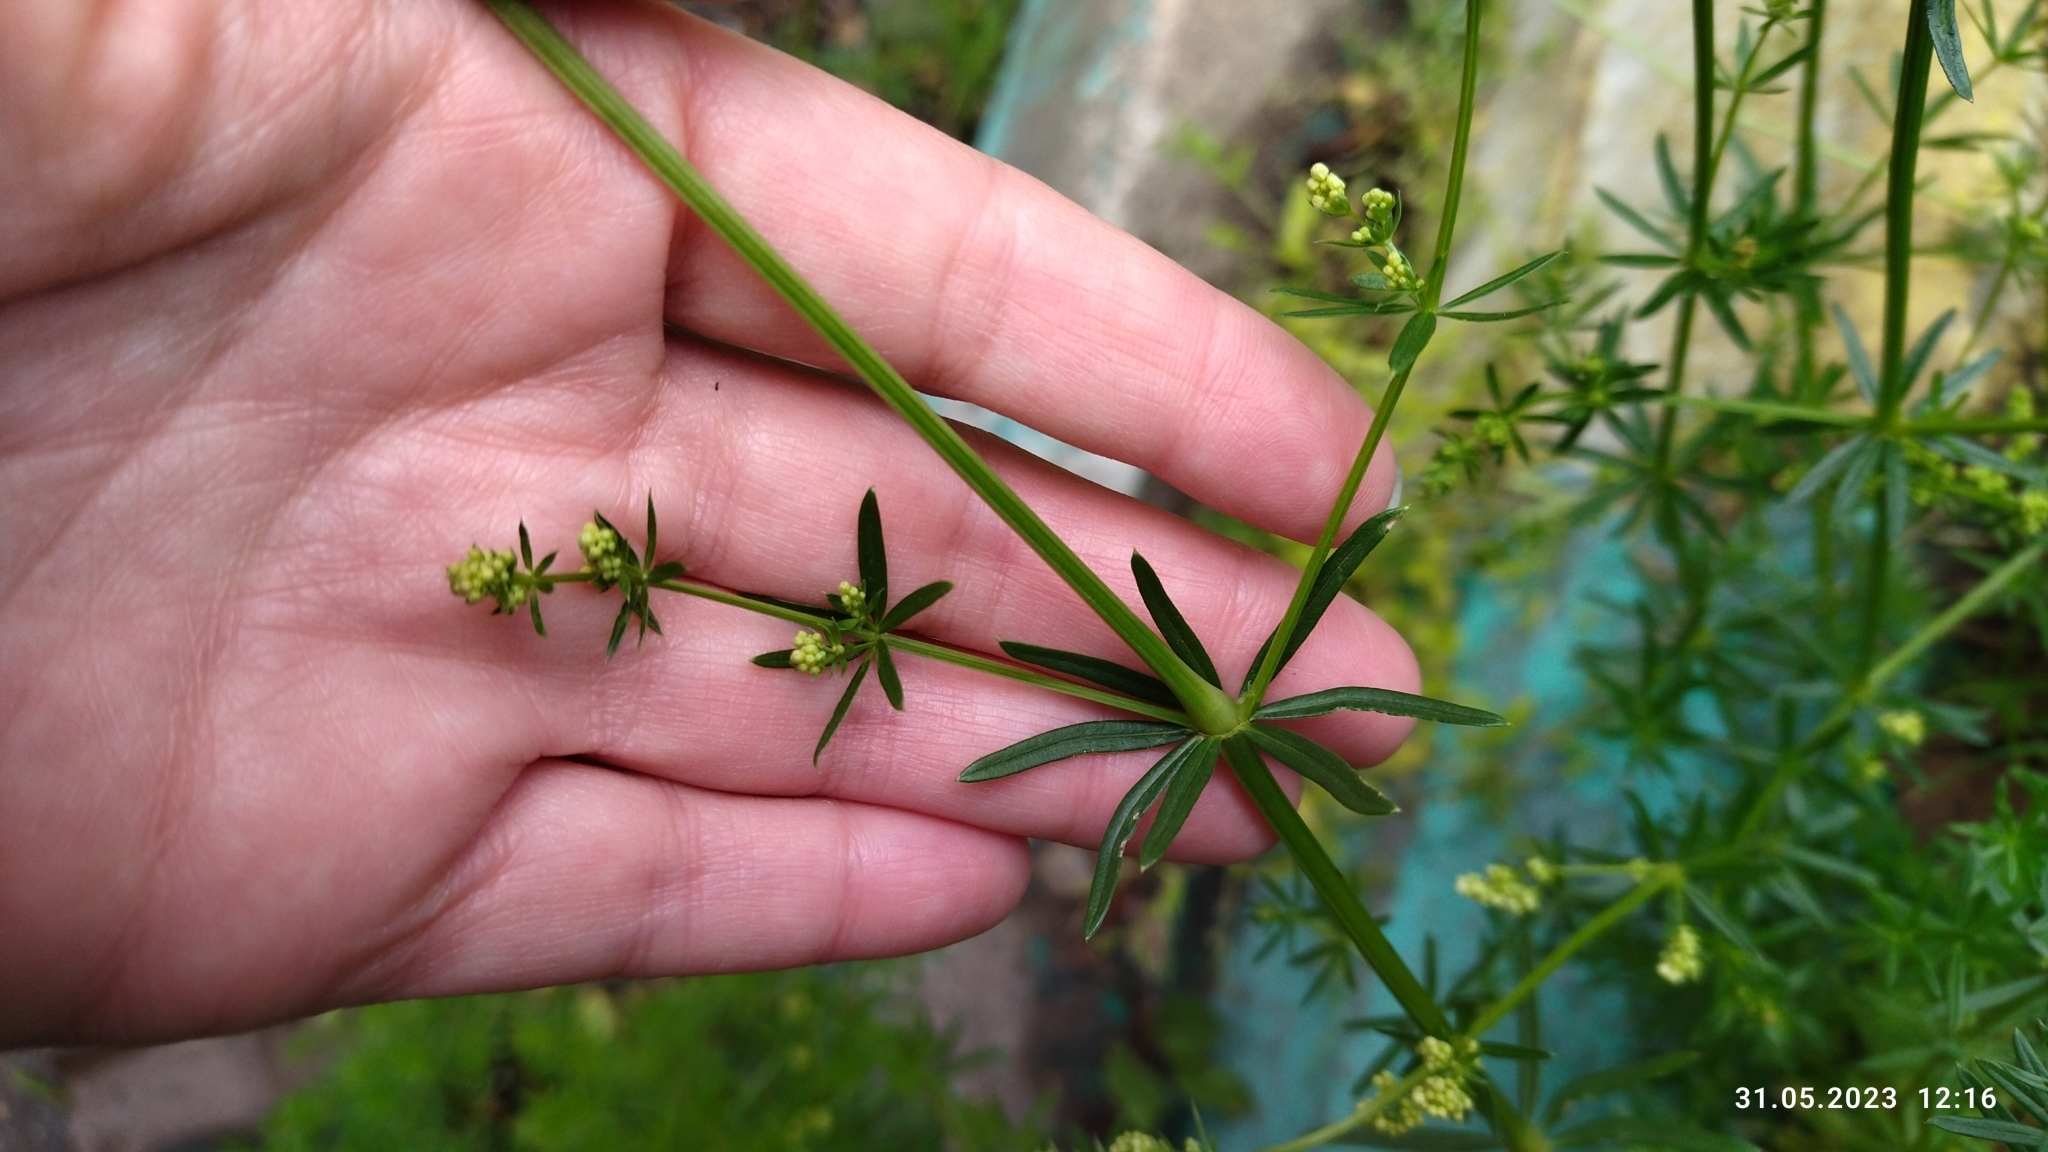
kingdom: Plantae
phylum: Tracheophyta
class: Magnoliopsida
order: Gentianales
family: Rubiaceae
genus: Galium
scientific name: Galium mollugo
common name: Hedge bedstraw
